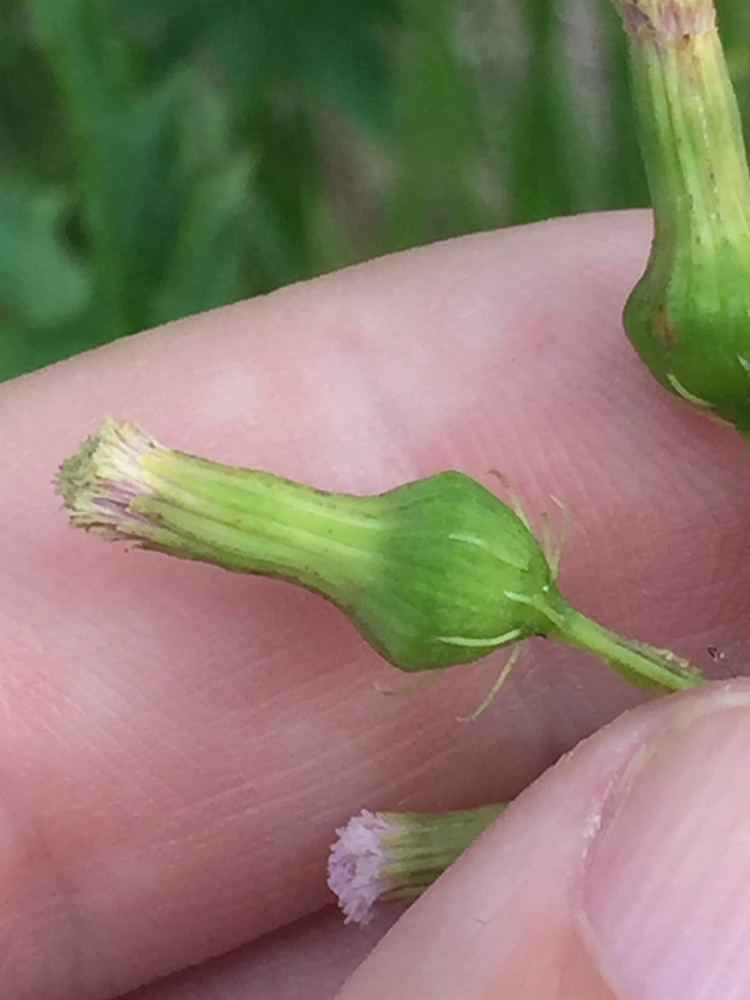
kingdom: Plantae
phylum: Tracheophyta
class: Magnoliopsida
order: Asterales
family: Asteraceae
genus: Erechtites
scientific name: Erechtites valerianifolius
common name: Tropical burnweed
